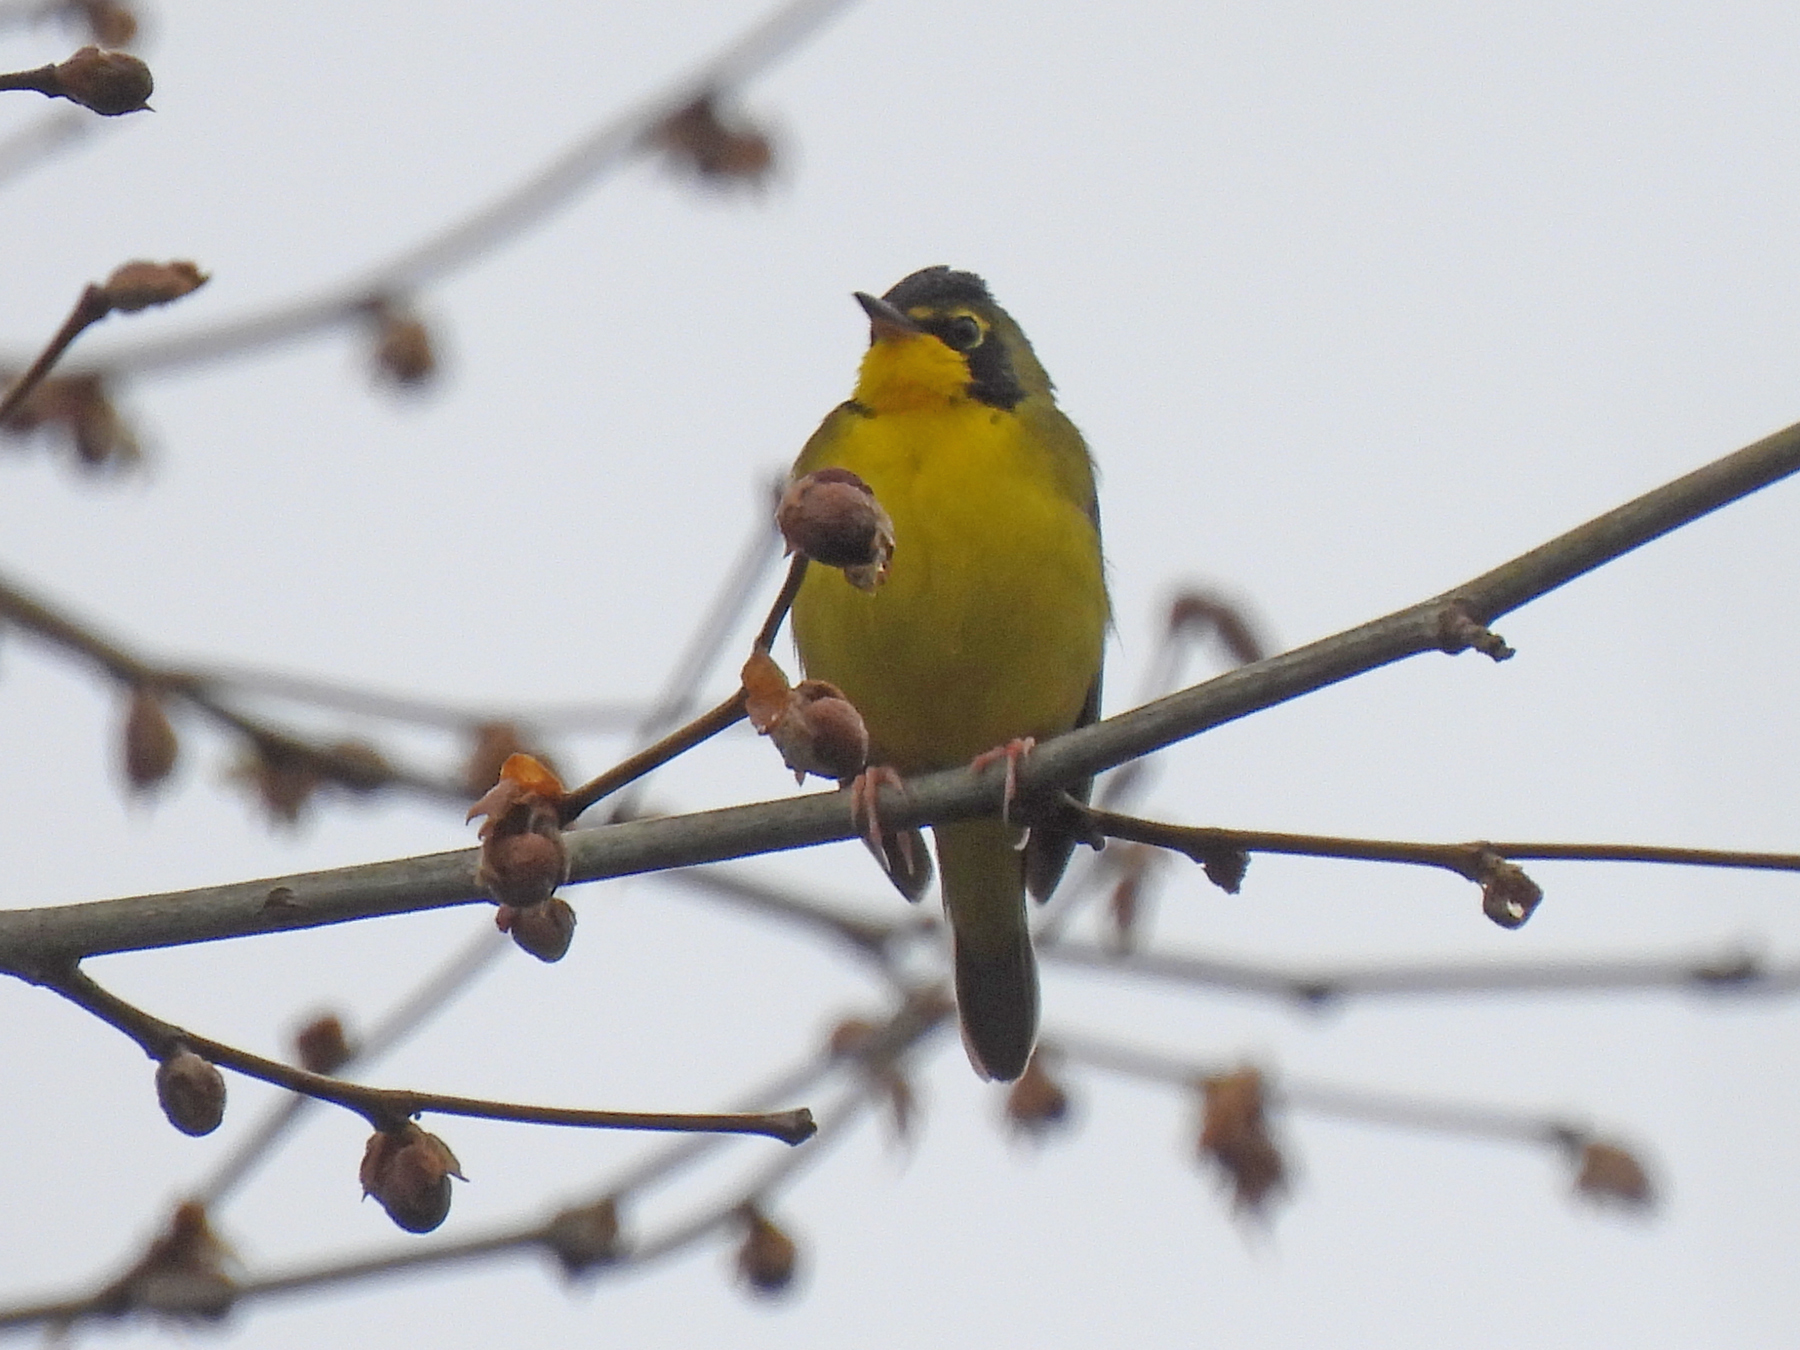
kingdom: Animalia
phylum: Chordata
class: Aves
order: Passeriformes
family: Parulidae
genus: Geothlypis
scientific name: Geothlypis formosa
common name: Kentucky warbler
